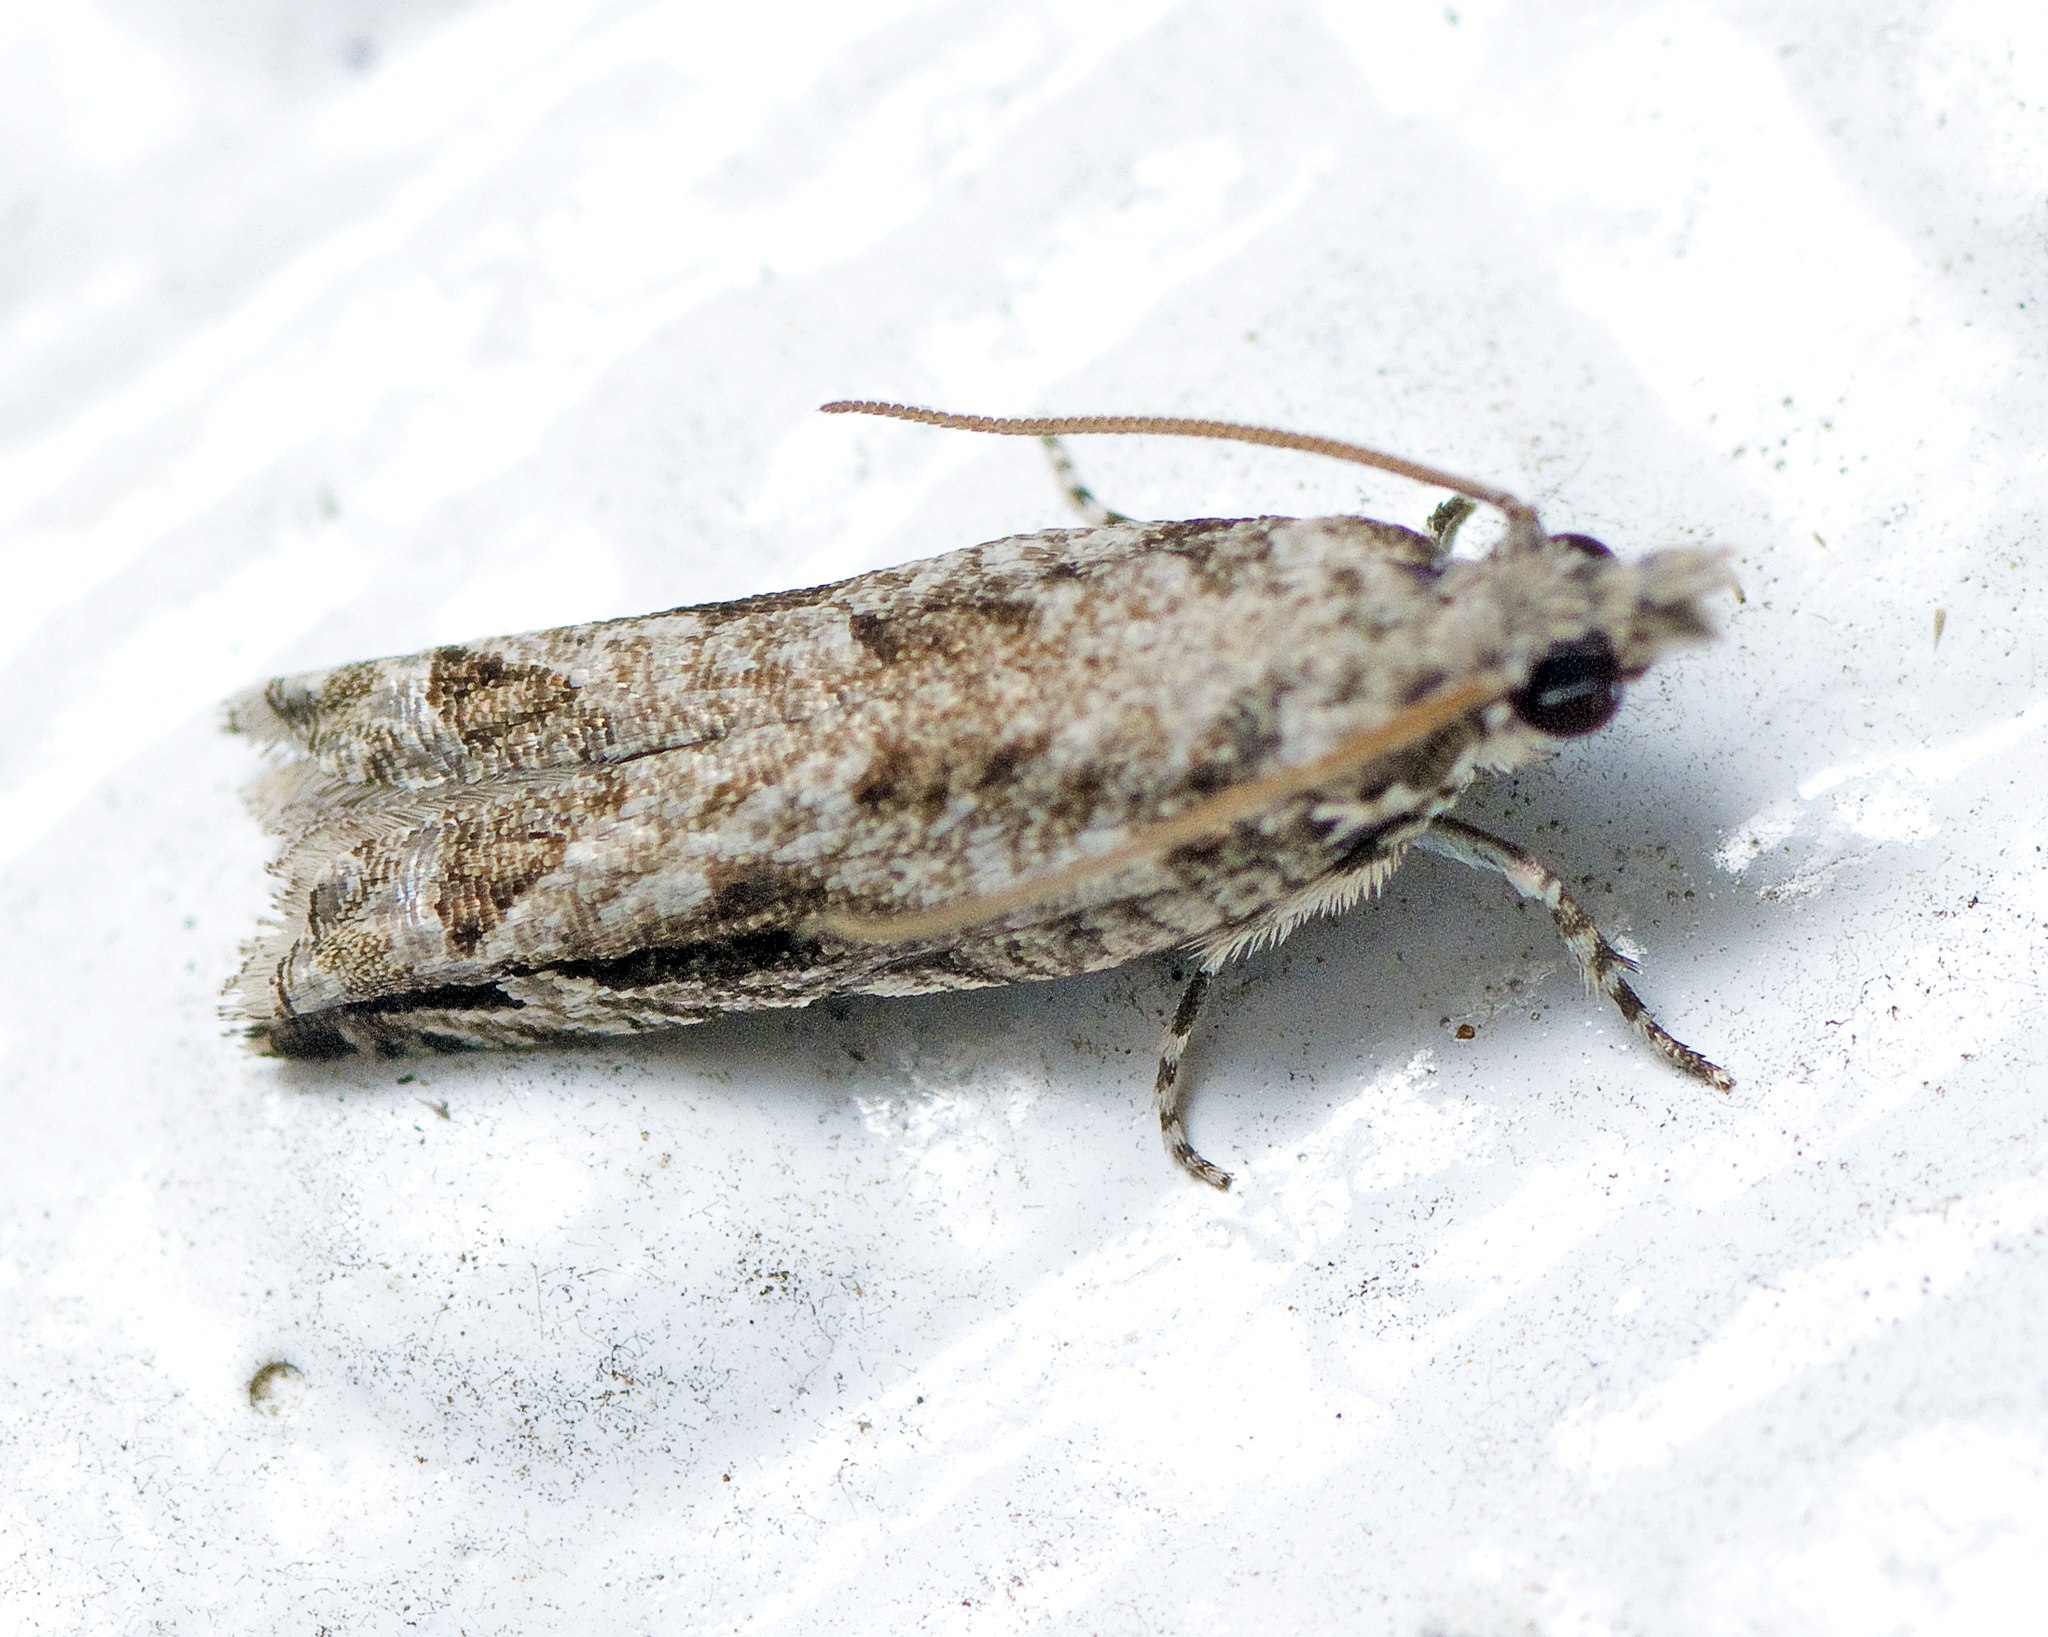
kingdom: Animalia
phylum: Arthropoda
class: Insecta
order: Lepidoptera
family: Tortricidae
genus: Crocidosema
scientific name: Crocidosema plebejana
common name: Southern bell
